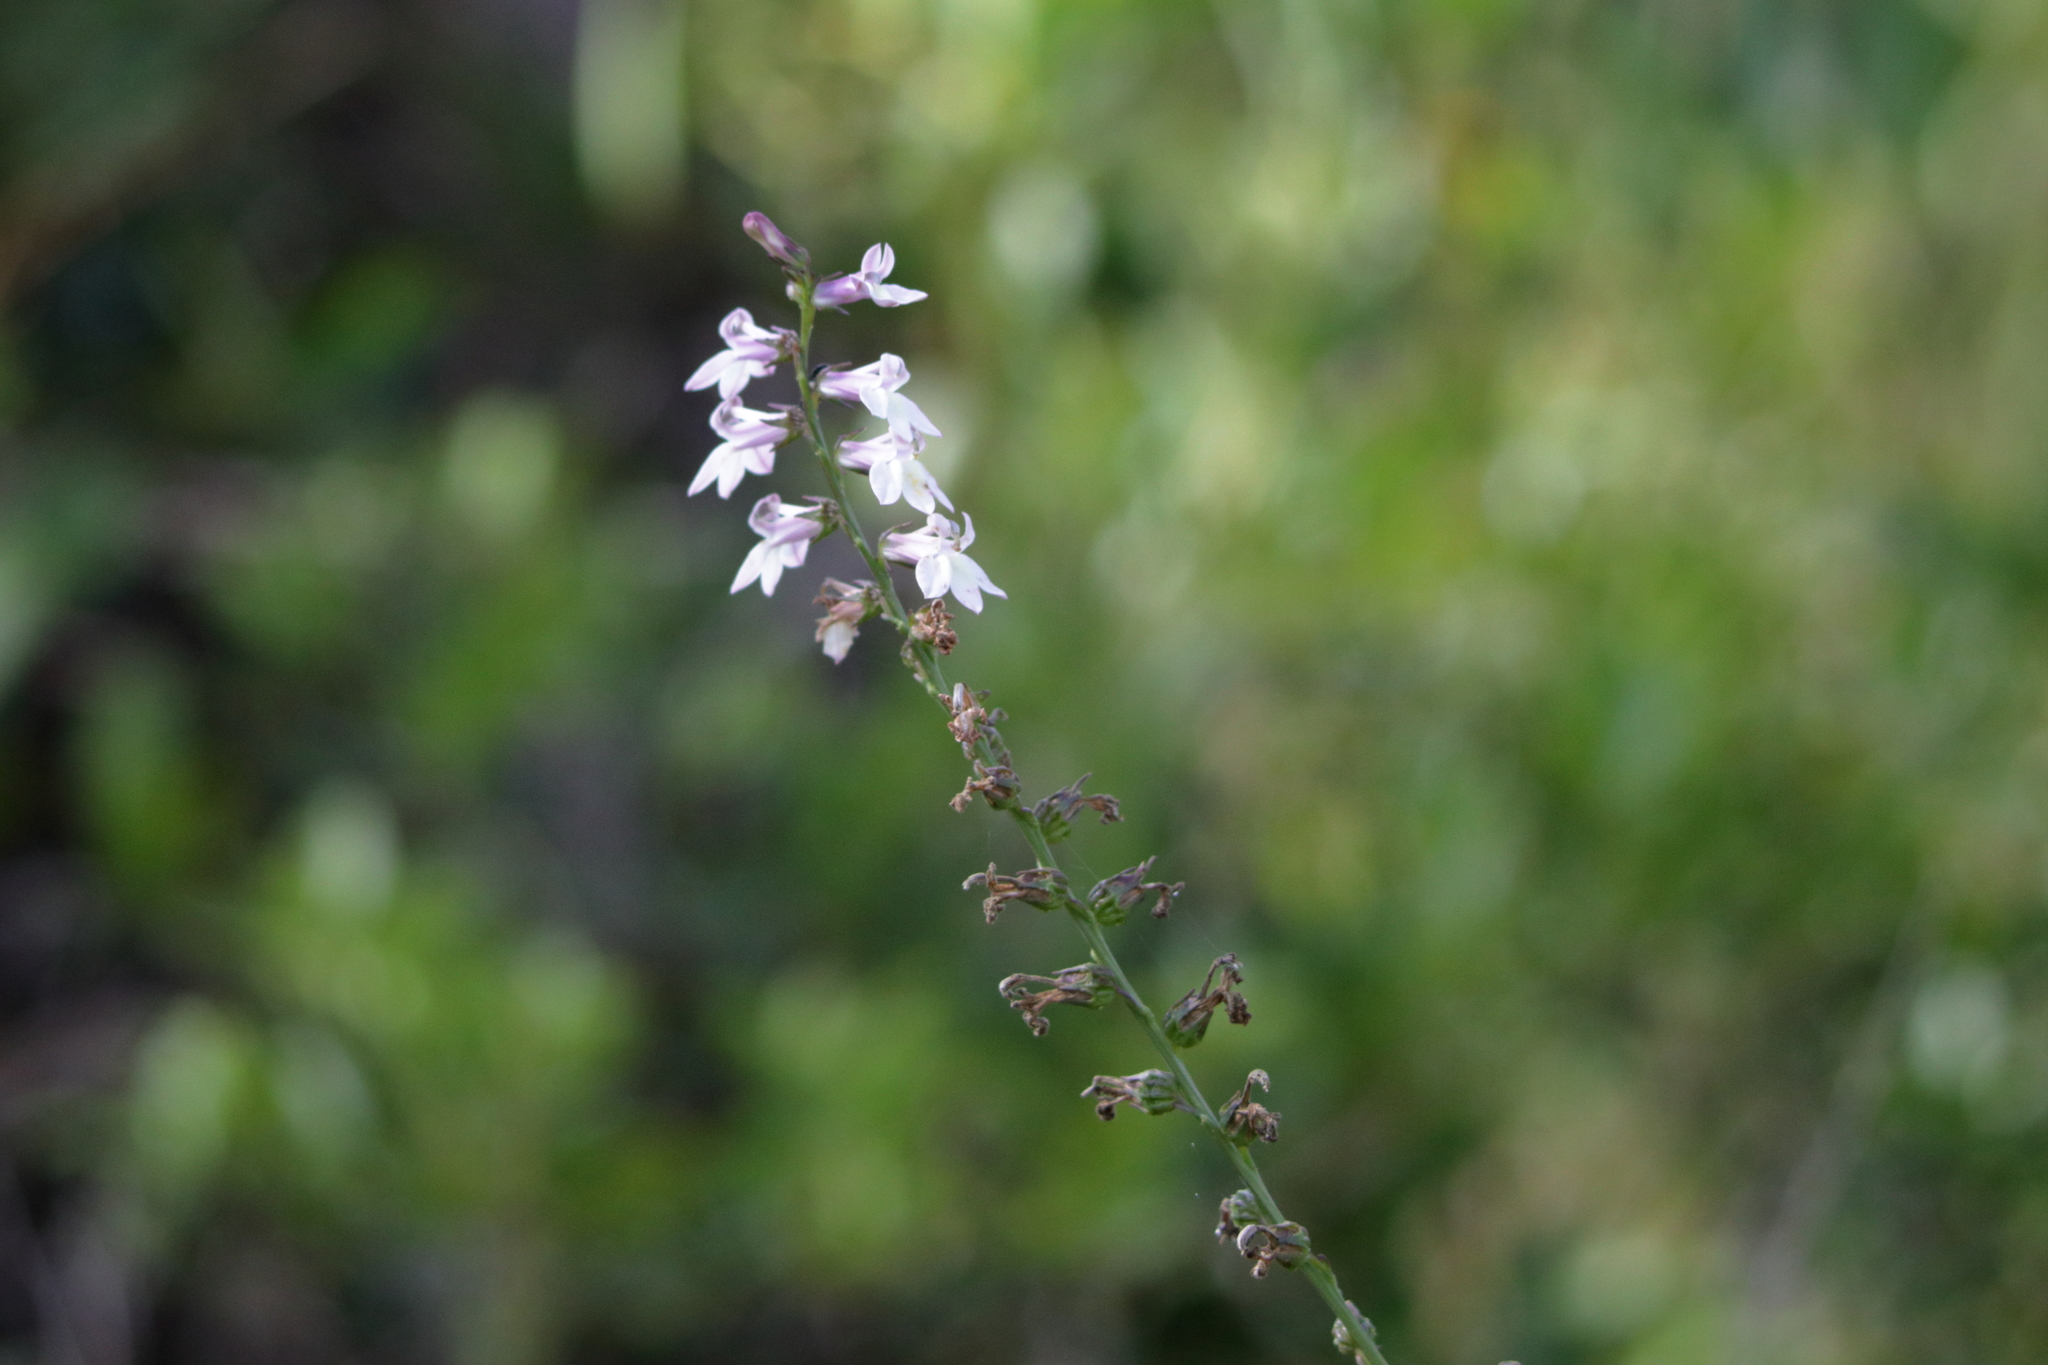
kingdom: Plantae
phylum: Tracheophyta
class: Magnoliopsida
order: Asterales
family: Campanulaceae
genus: Lobelia
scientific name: Lobelia floridana
